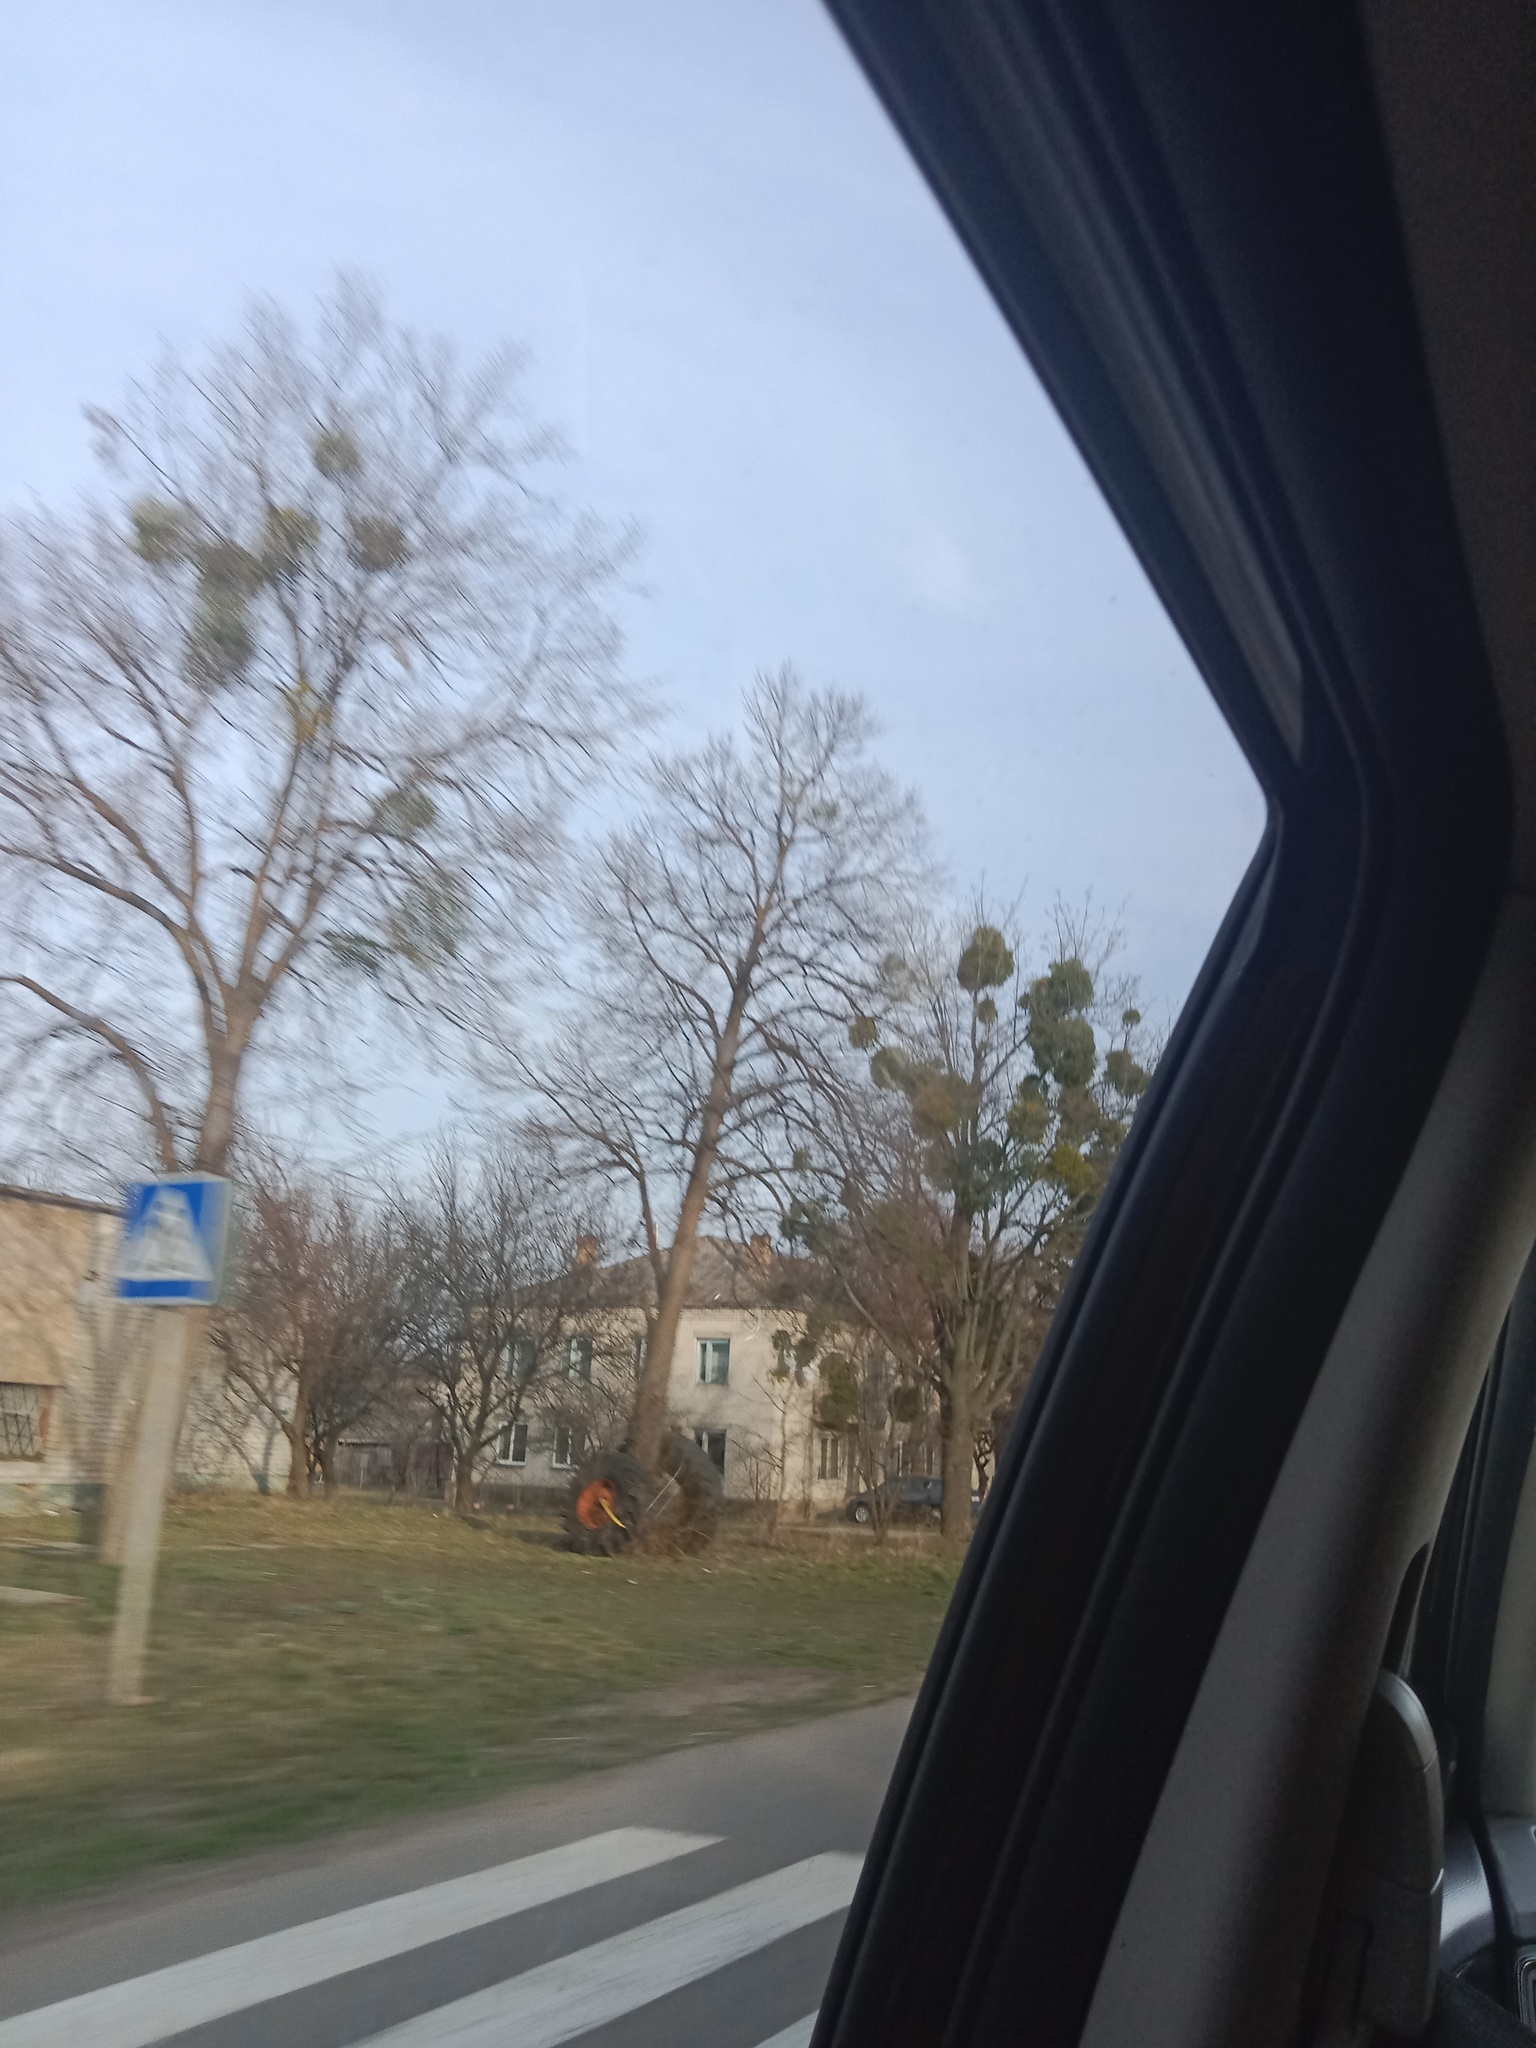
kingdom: Plantae
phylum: Tracheophyta
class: Magnoliopsida
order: Santalales
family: Viscaceae
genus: Viscum
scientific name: Viscum album
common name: Mistletoe
